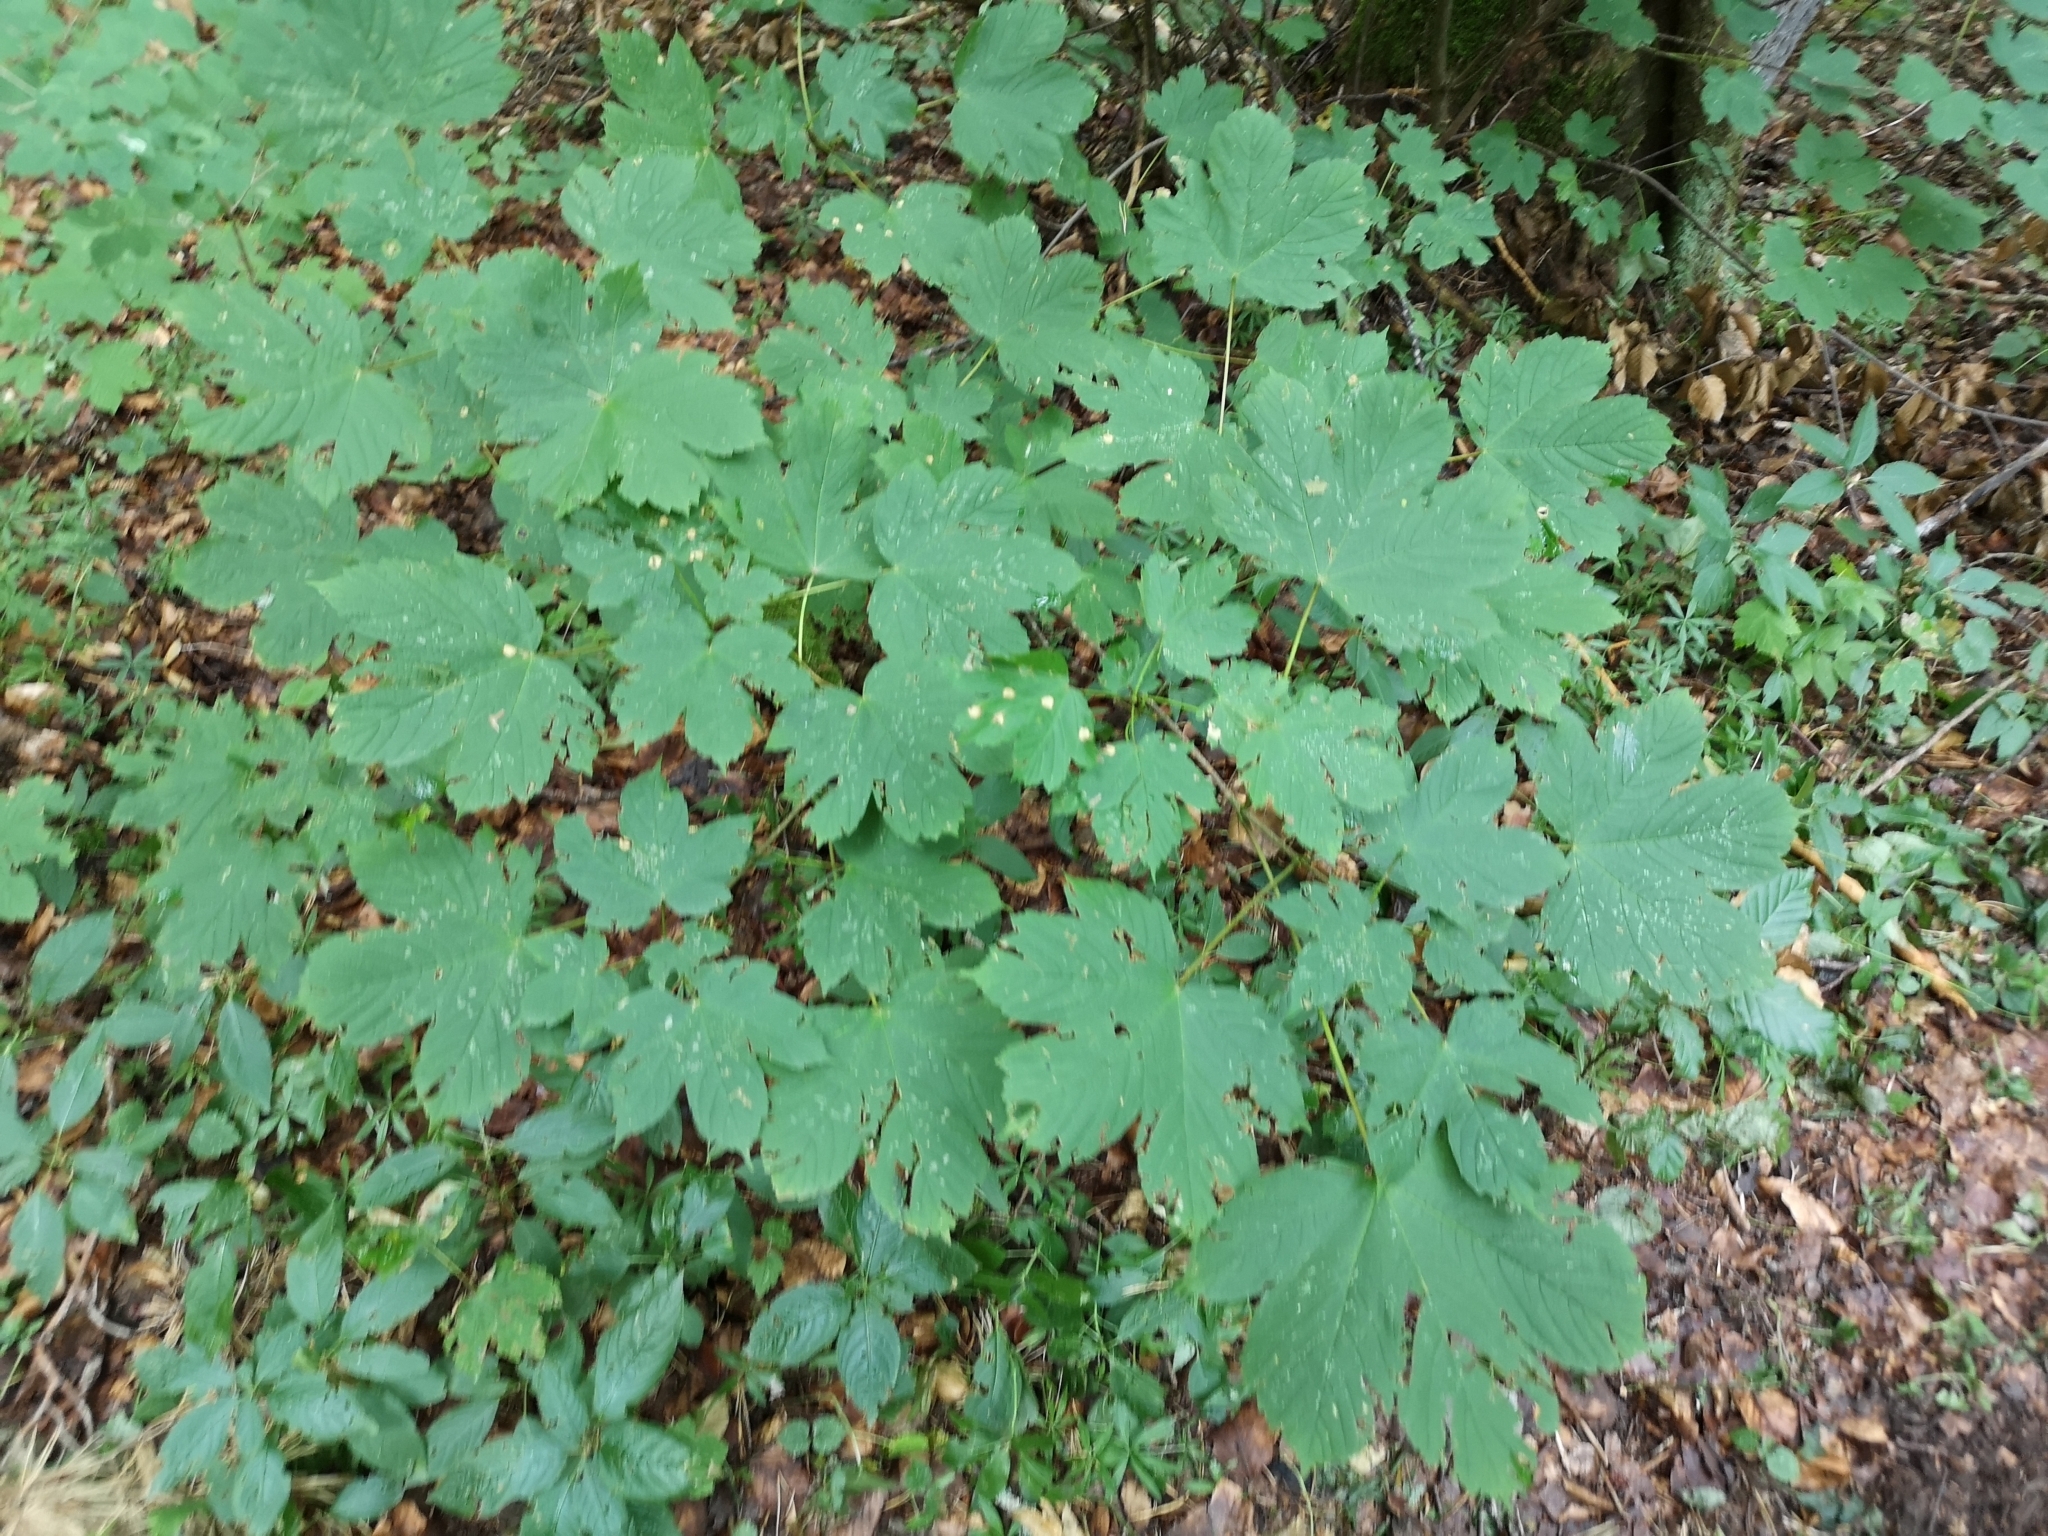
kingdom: Plantae
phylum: Tracheophyta
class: Magnoliopsida
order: Sapindales
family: Sapindaceae
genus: Acer
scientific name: Acer pseudoplatanus
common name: Sycamore
